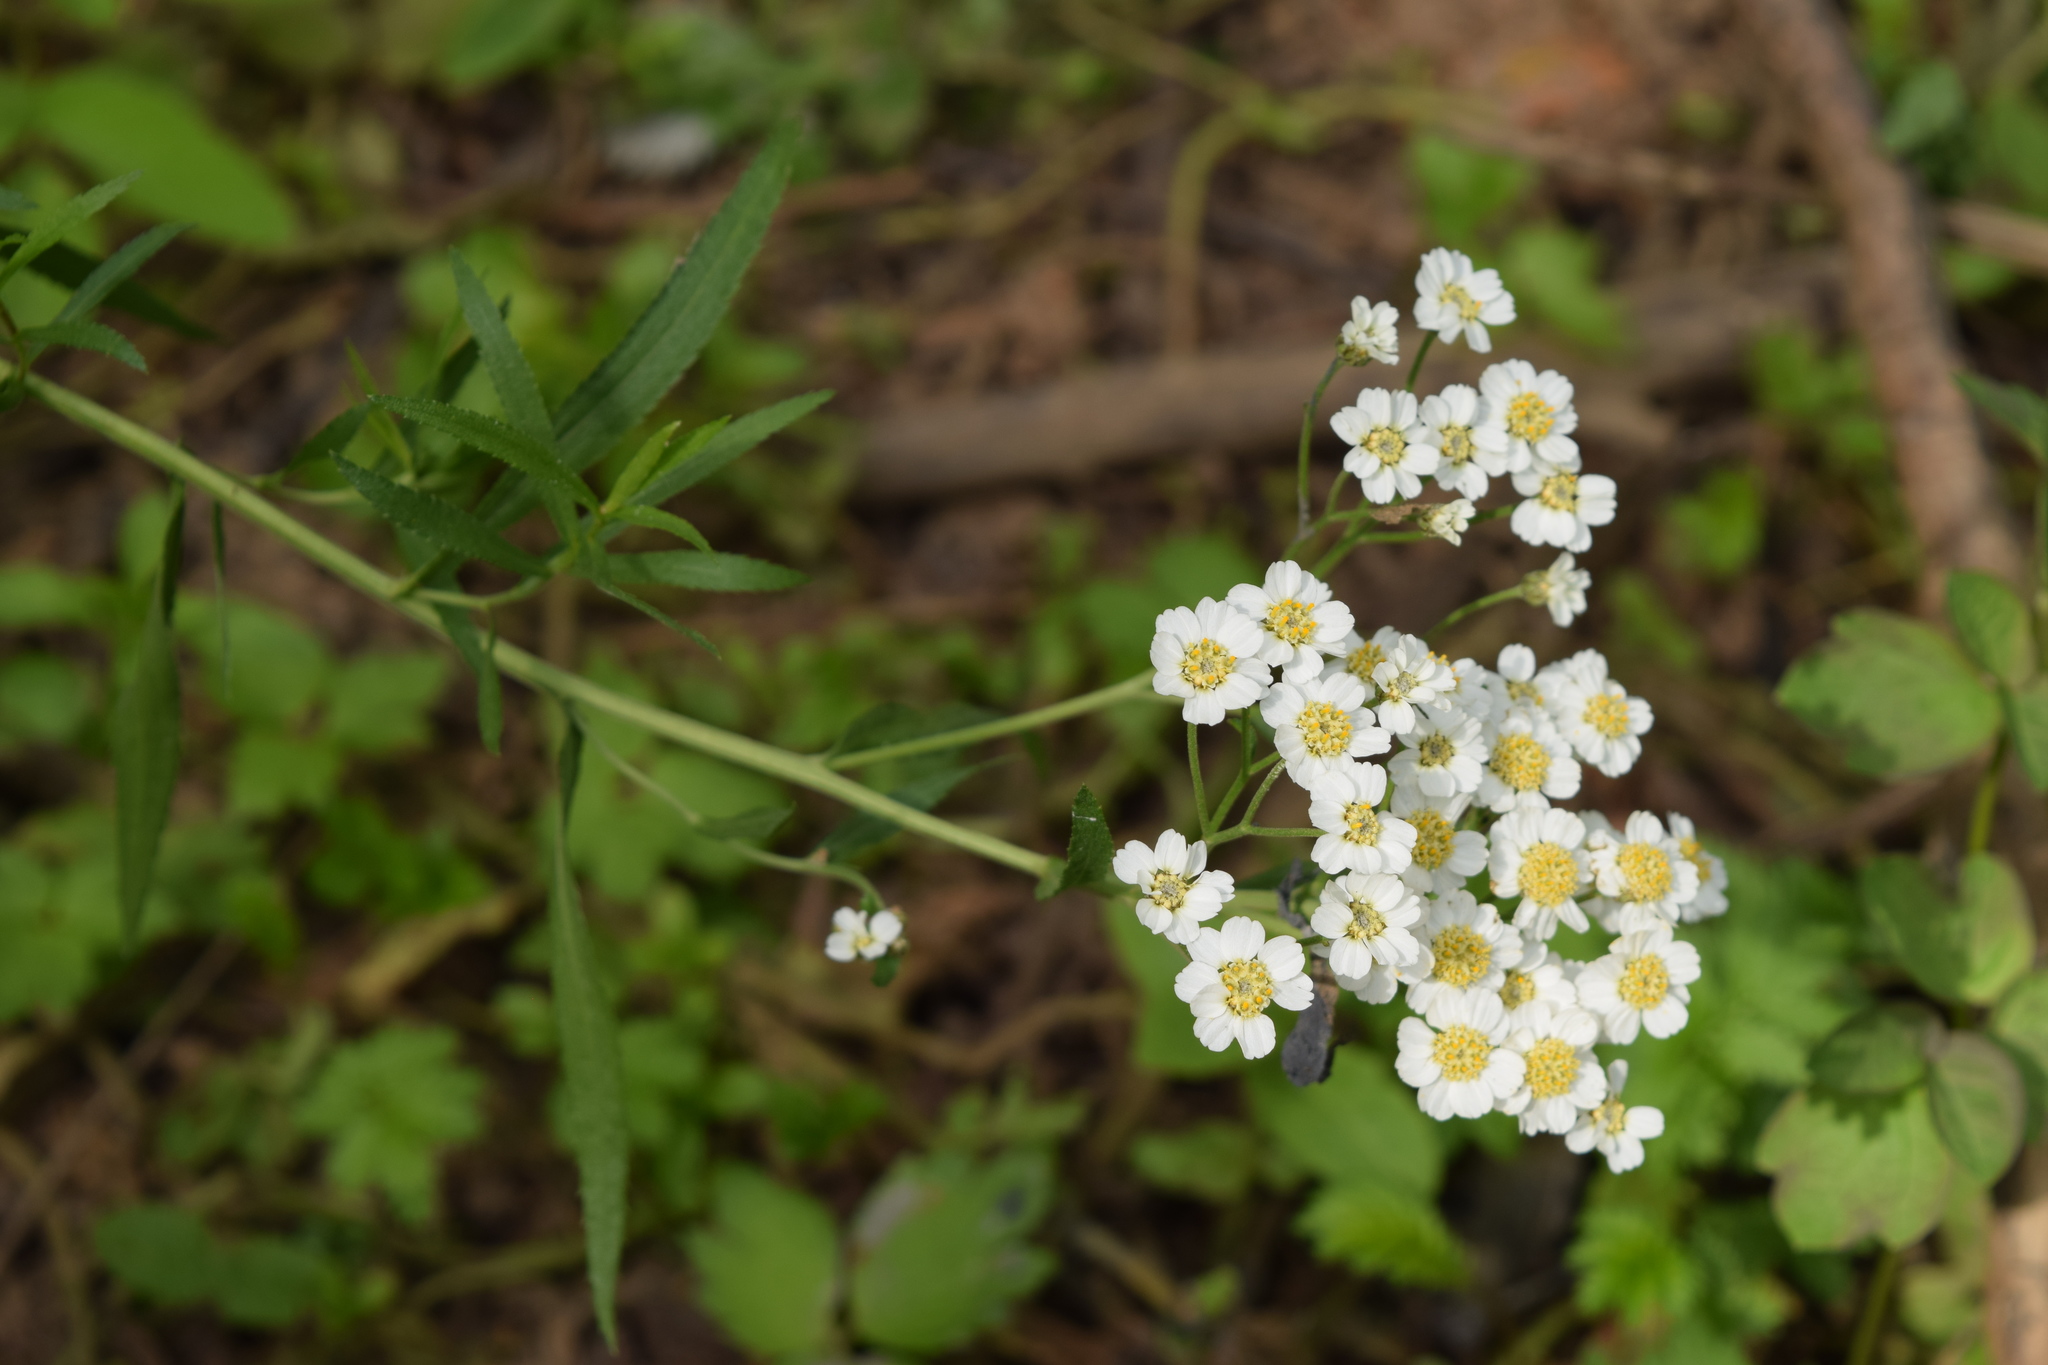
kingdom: Plantae
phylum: Tracheophyta
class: Magnoliopsida
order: Asterales
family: Asteraceae
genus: Achillea
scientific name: Achillea salicifolia
